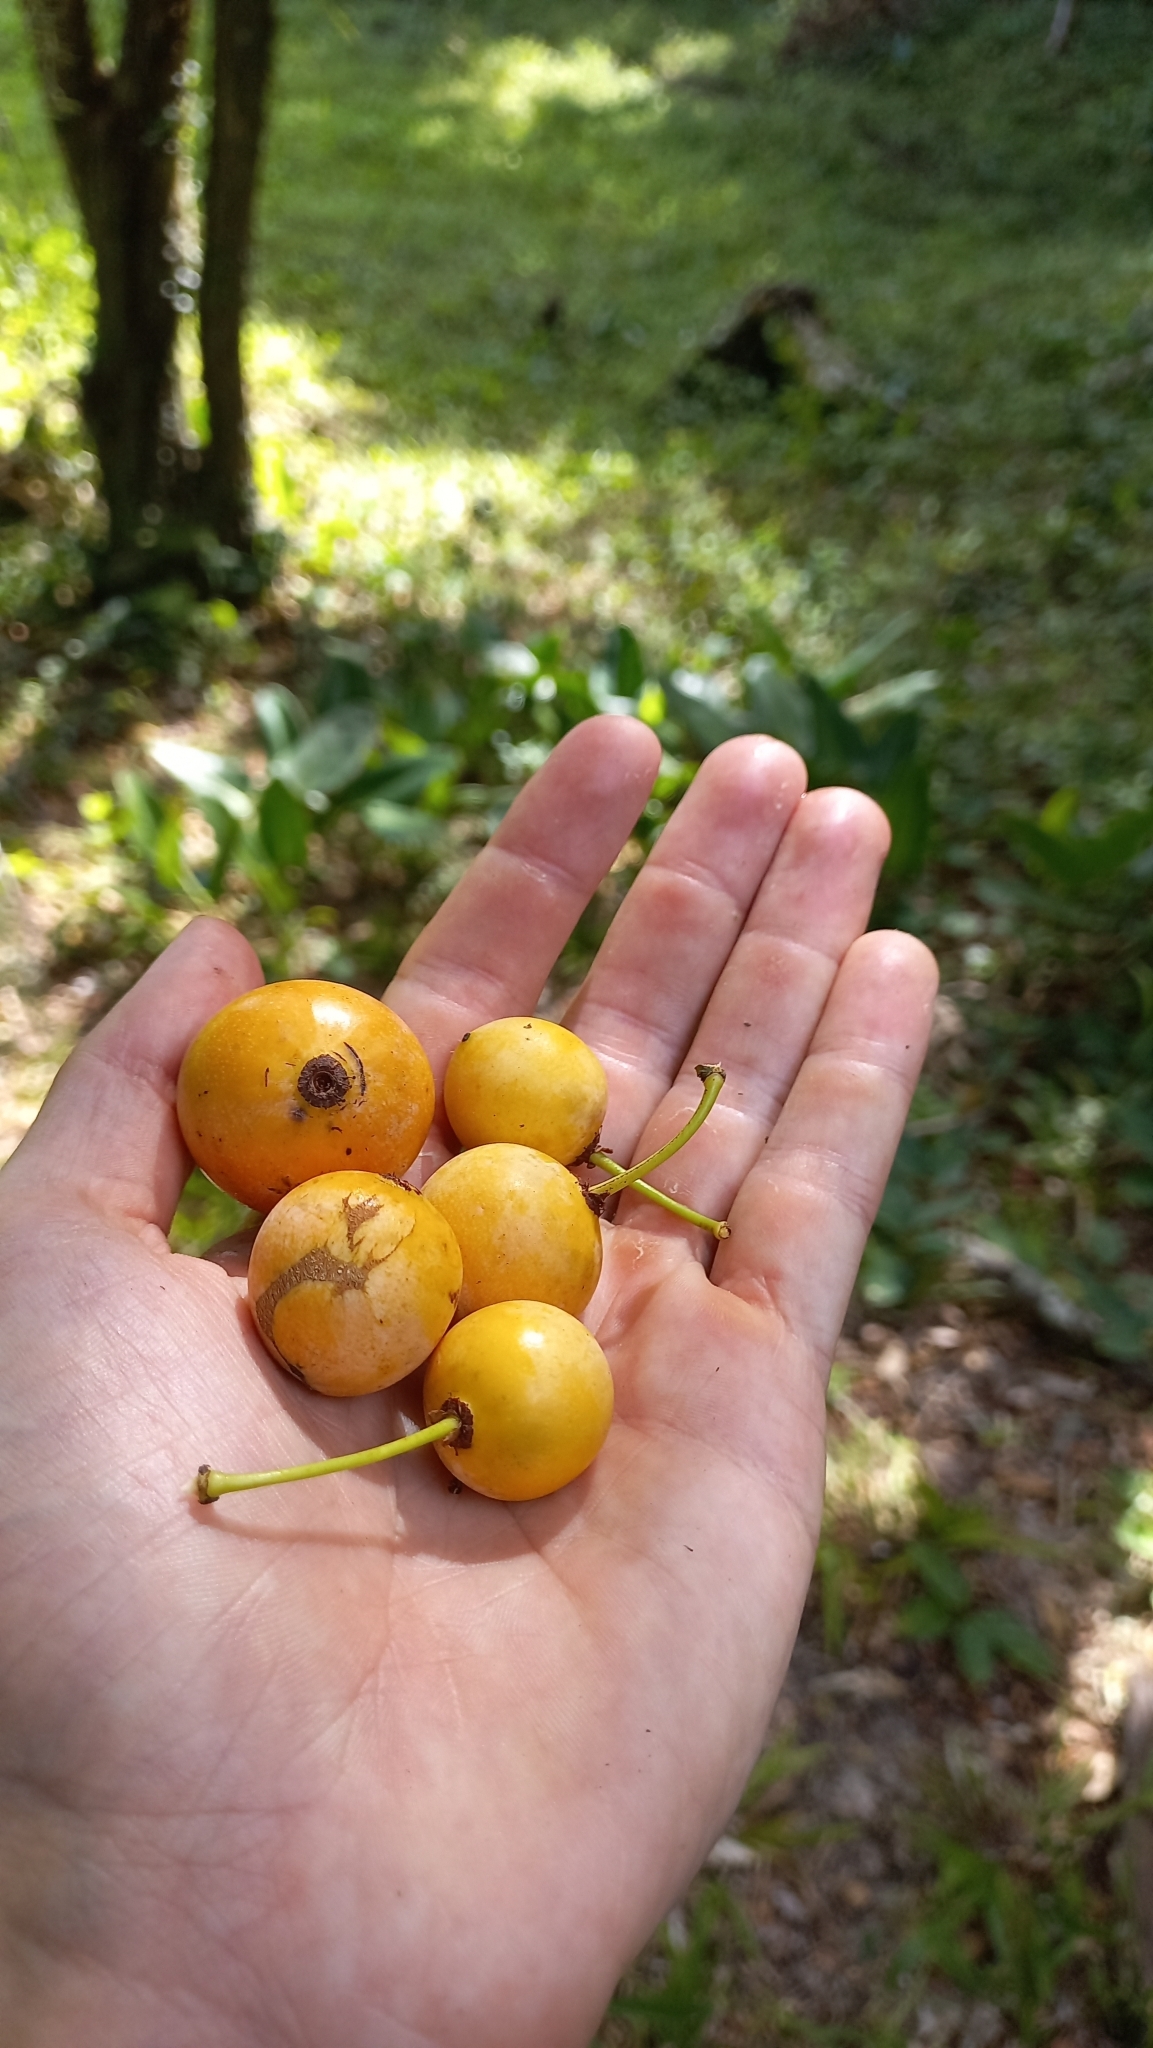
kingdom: Plantae
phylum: Tracheophyta
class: Magnoliopsida
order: Malpighiales
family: Clusiaceae
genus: Garcinia
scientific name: Garcinia gardneriana
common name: Achacha
